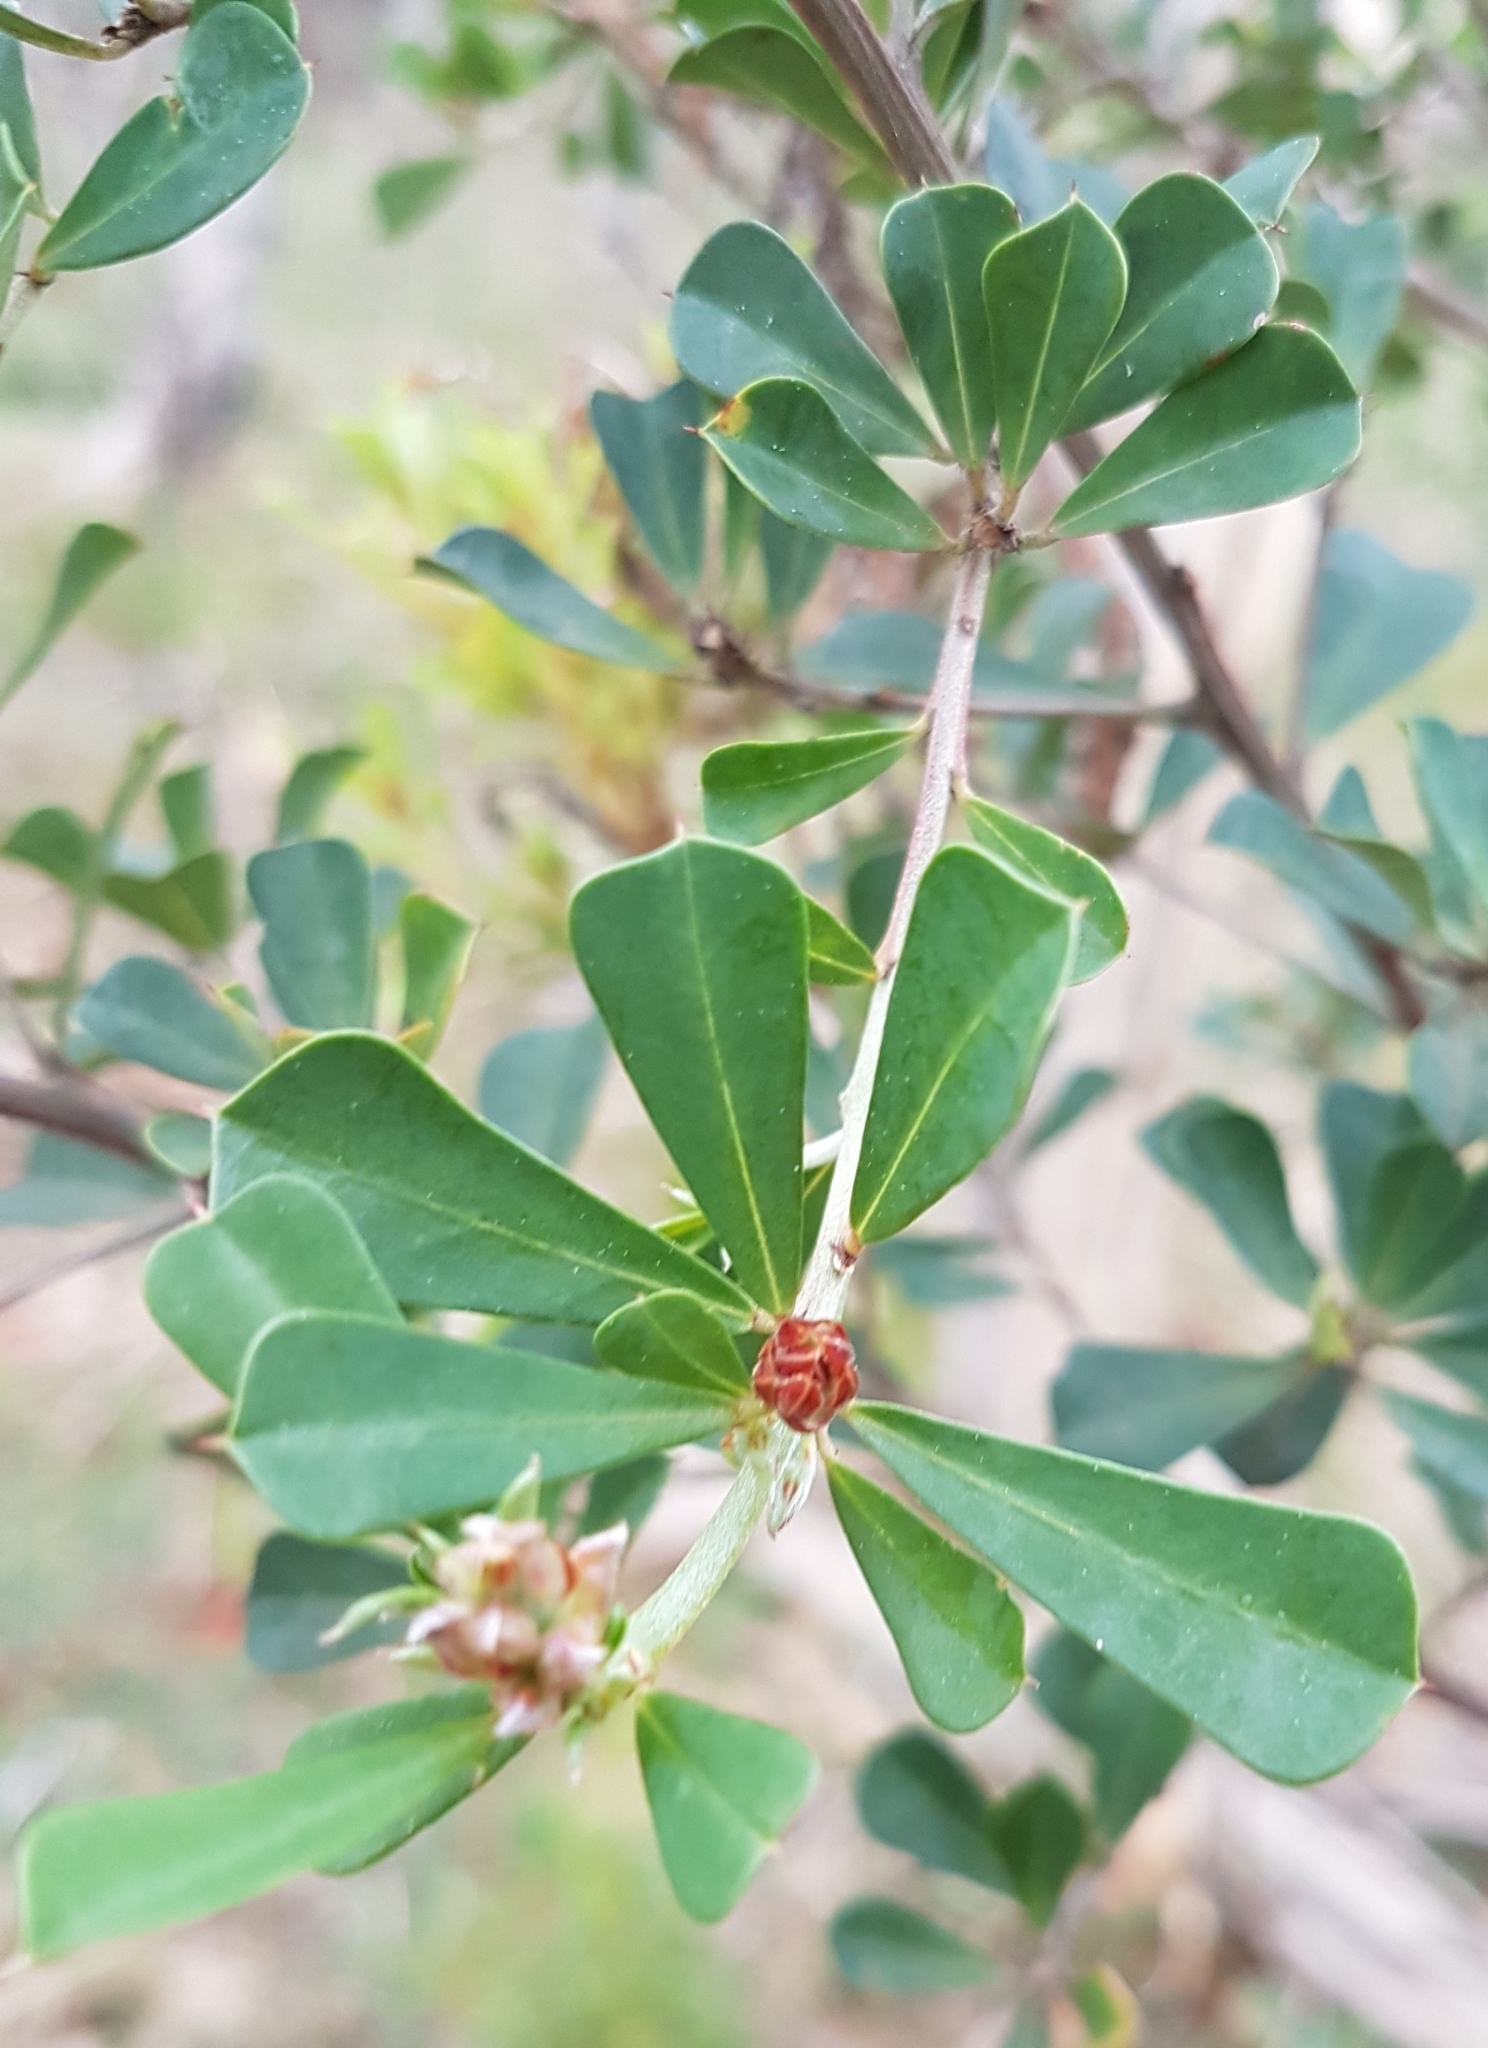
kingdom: Plantae
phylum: Tracheophyta
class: Magnoliopsida
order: Fabales
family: Fabaceae
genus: Pultenaea
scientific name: Pultenaea daphnoides
